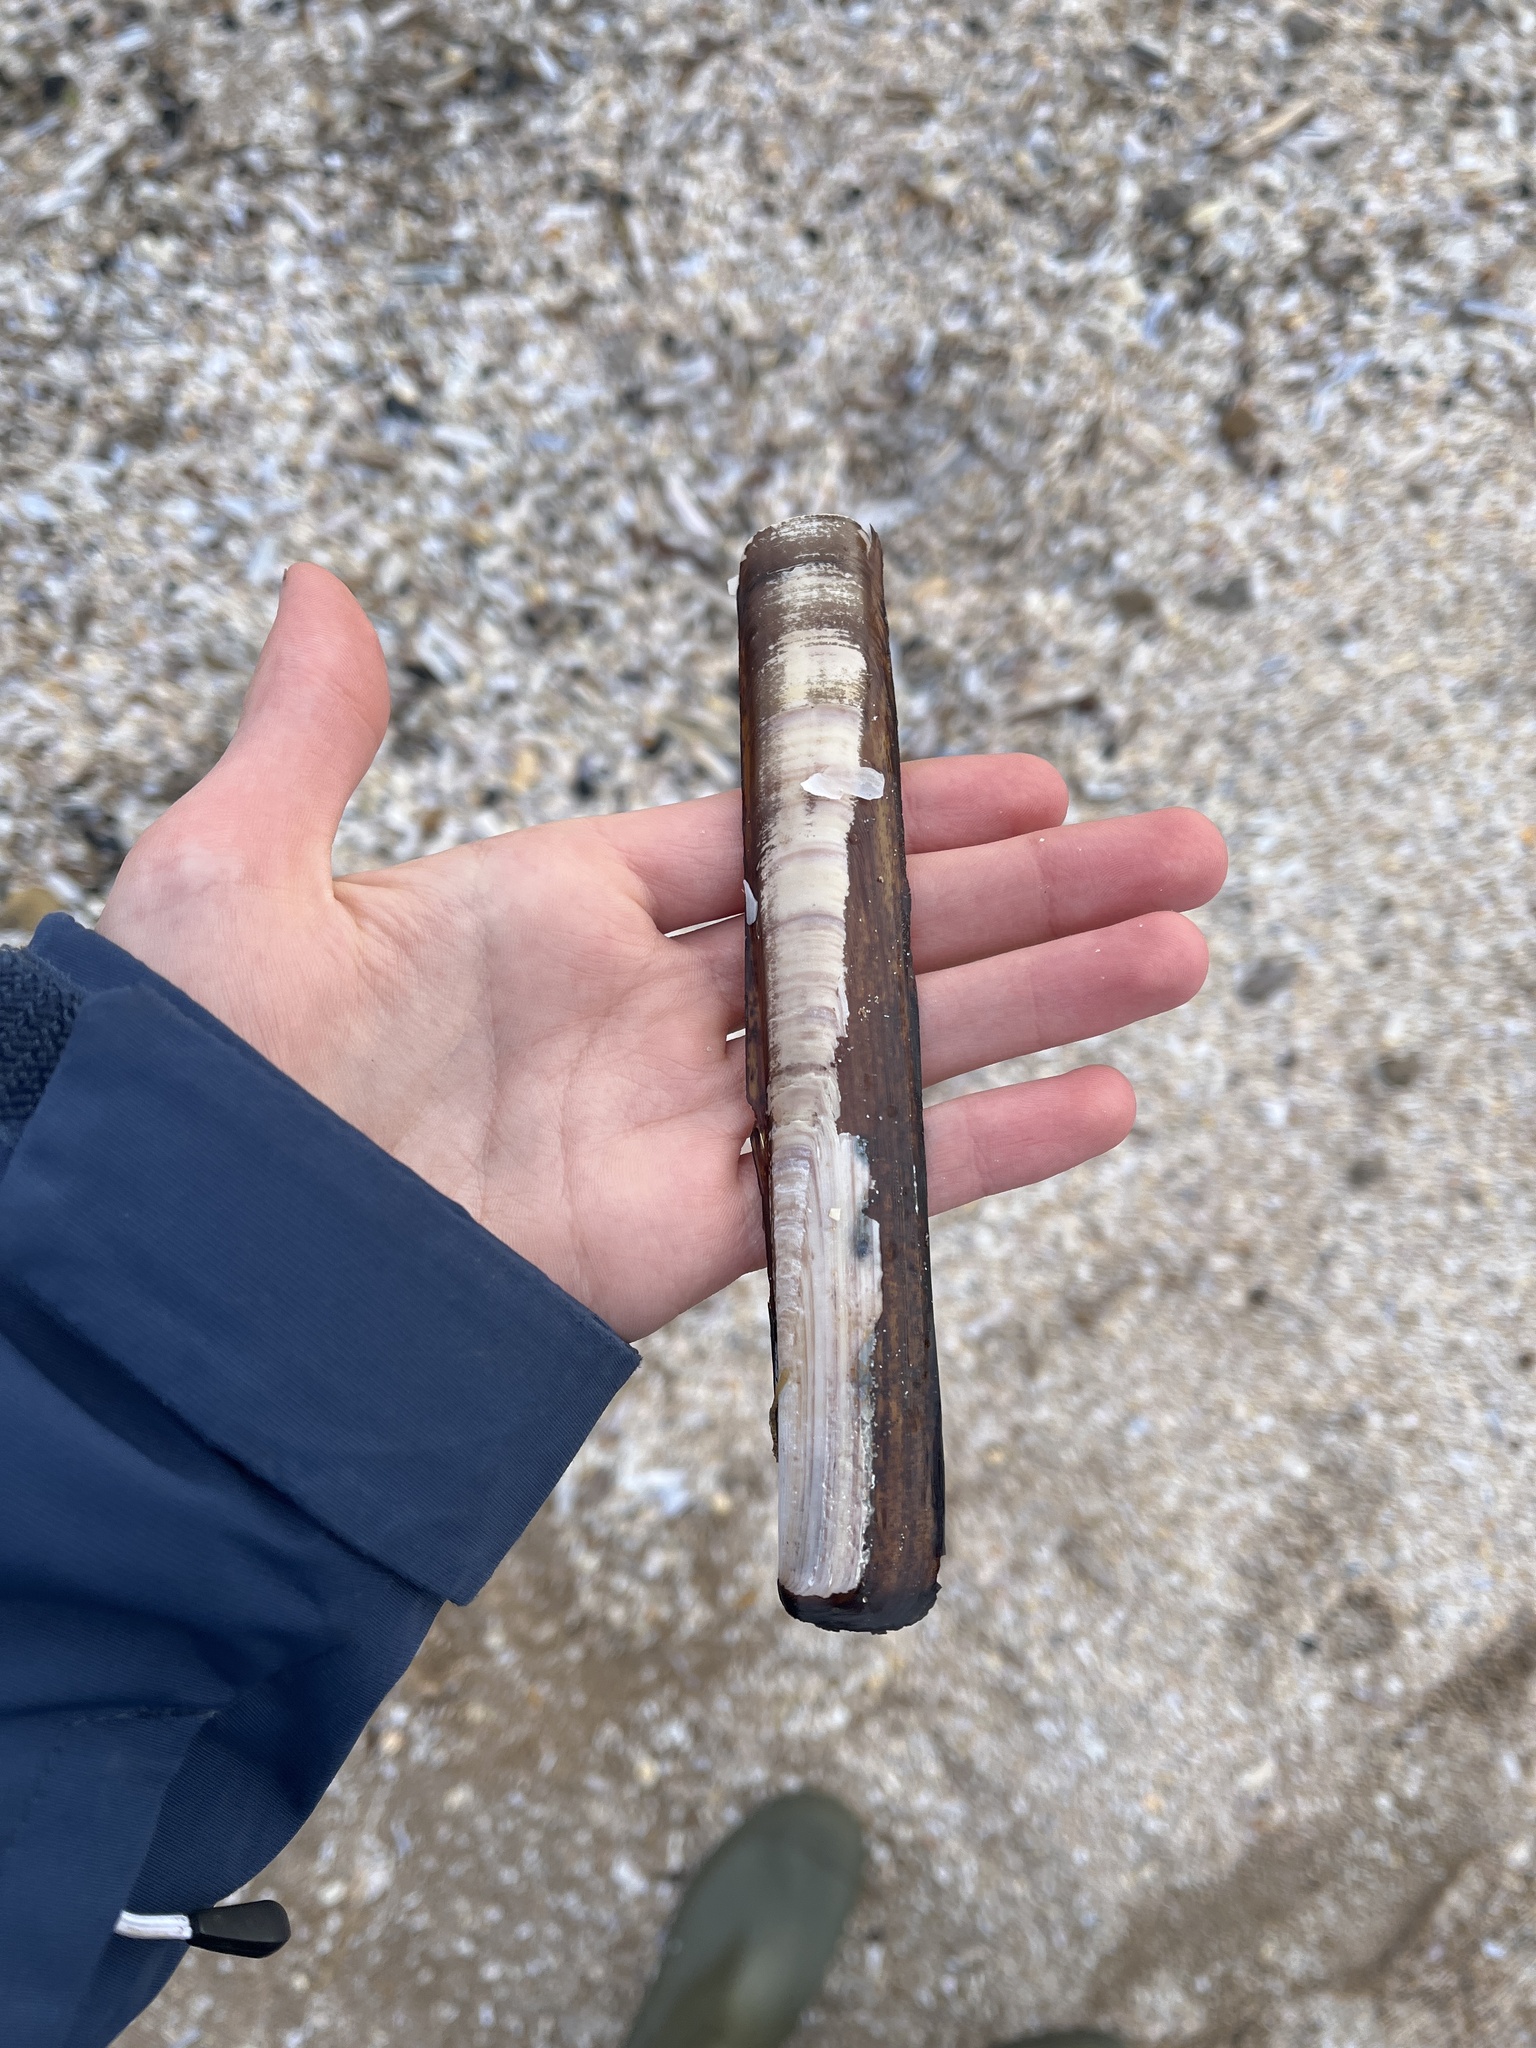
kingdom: Animalia
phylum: Mollusca
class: Bivalvia
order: Adapedonta
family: Pharidae
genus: Ensis
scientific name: Ensis siliqua
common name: Pod razor shell
